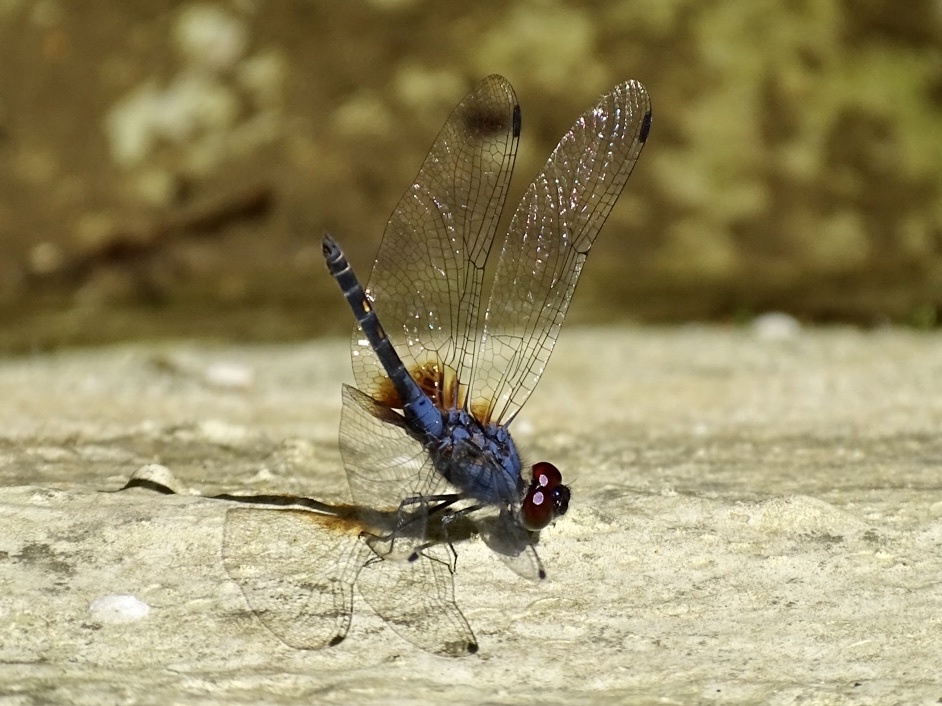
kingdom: Animalia
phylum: Arthropoda
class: Insecta
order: Odonata
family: Libellulidae
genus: Trithemis
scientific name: Trithemis festiva
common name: Indigo dropwing
